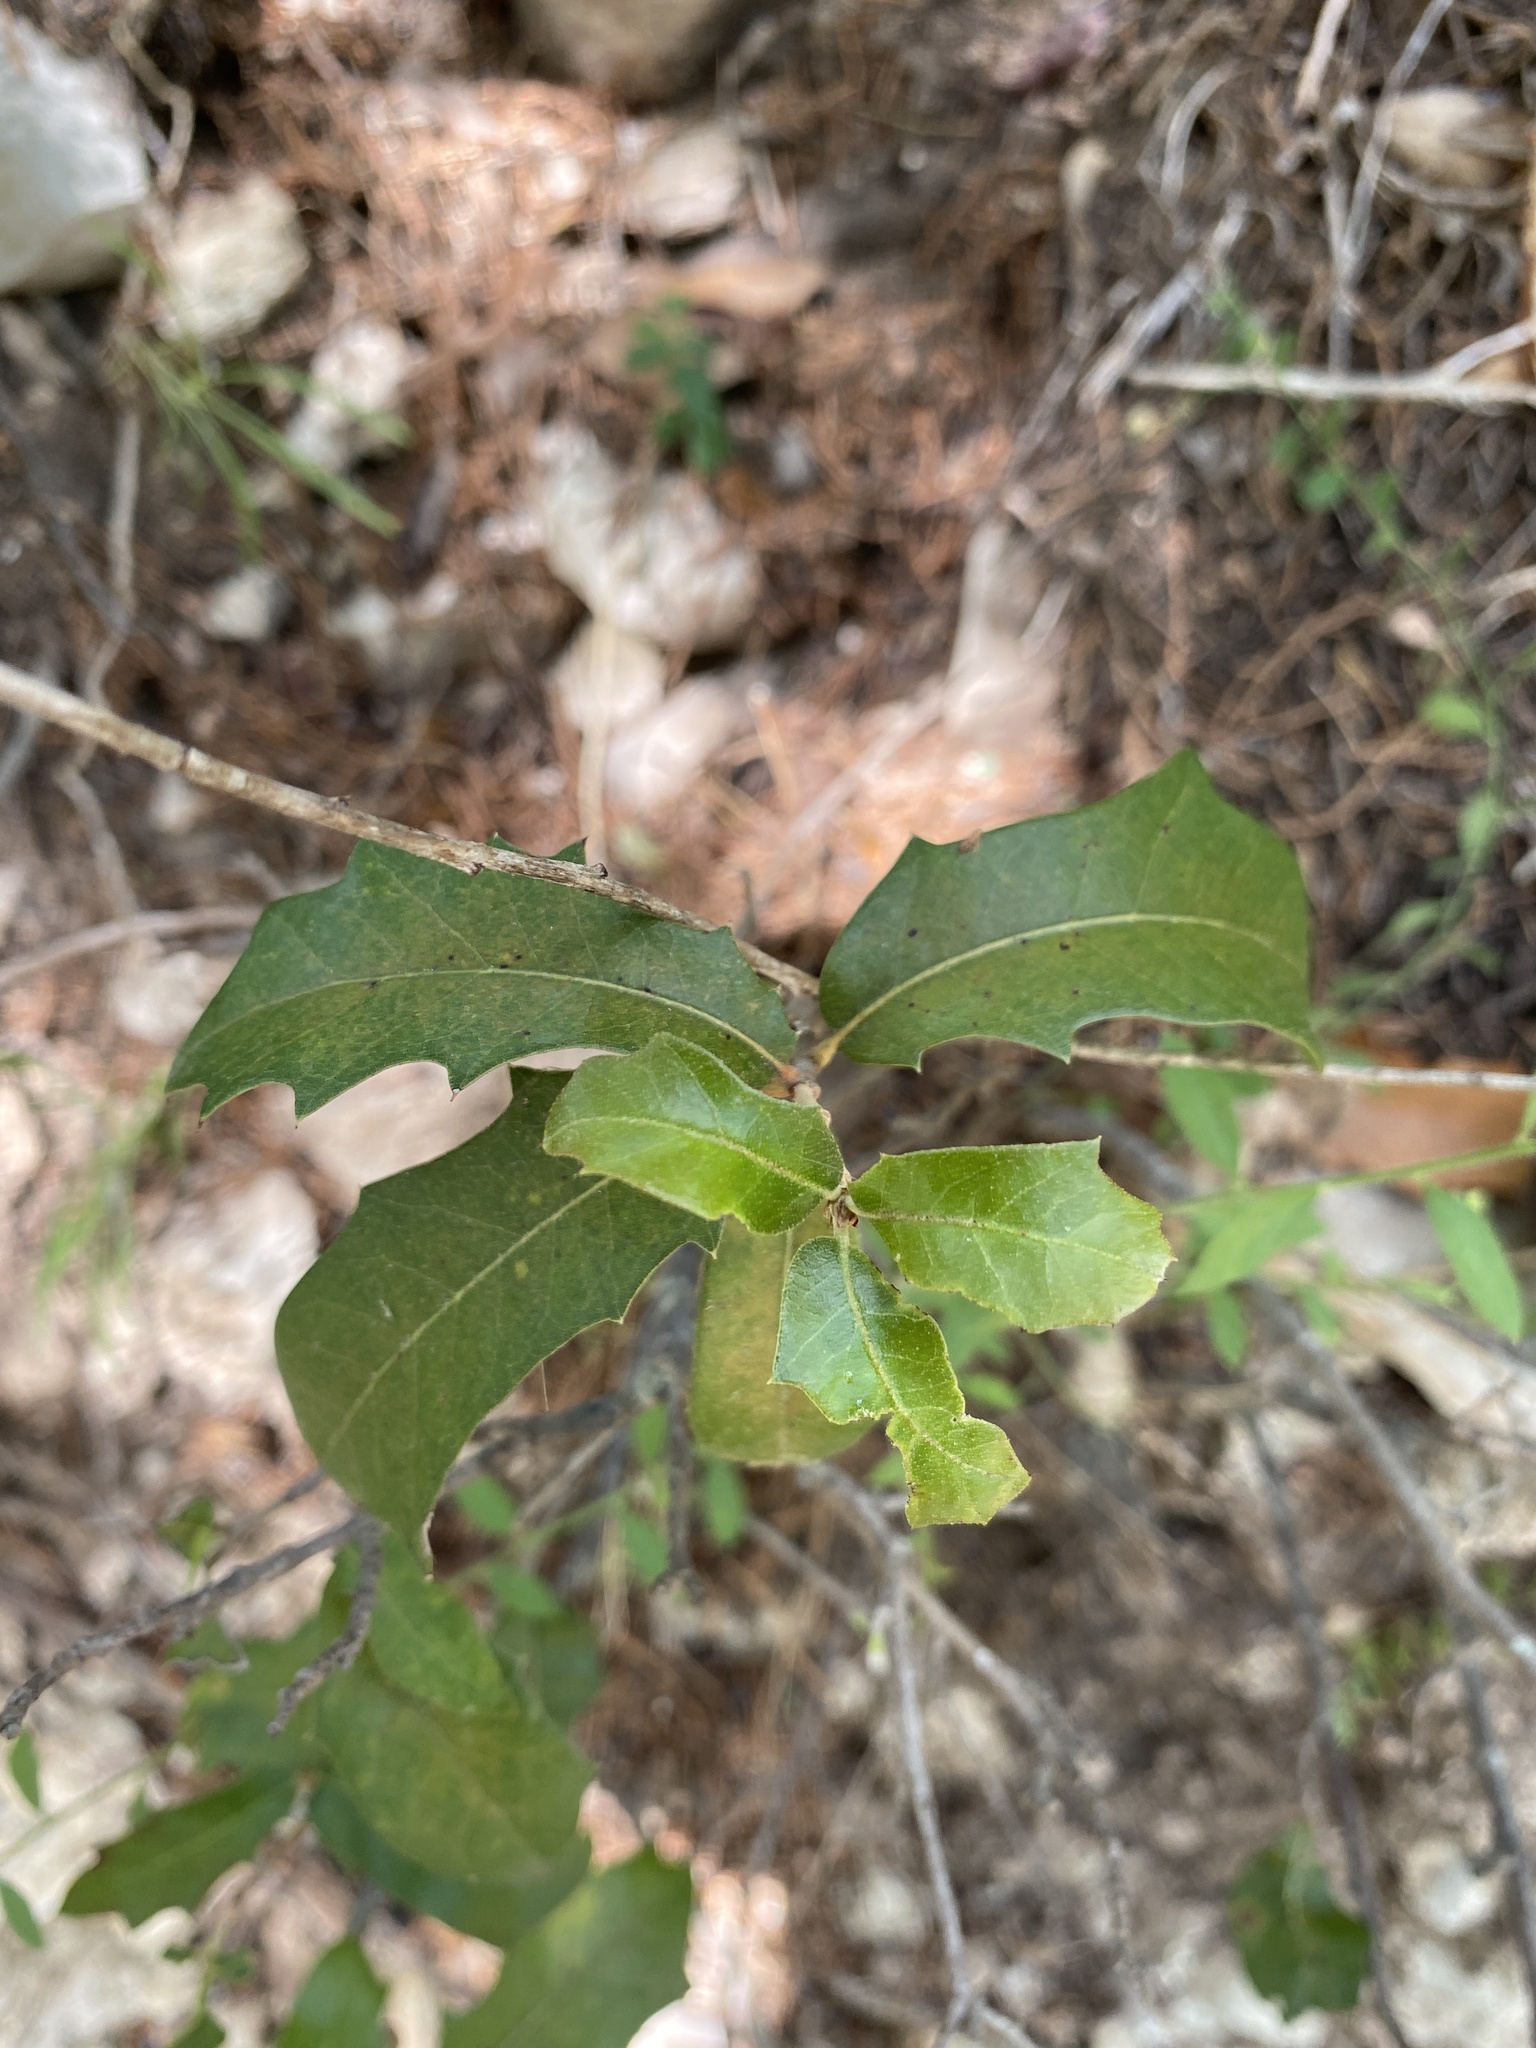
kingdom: Plantae
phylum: Tracheophyta
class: Magnoliopsida
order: Fagales
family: Fagaceae
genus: Quercus
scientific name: Quercus fusiformis
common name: Texas live oak
